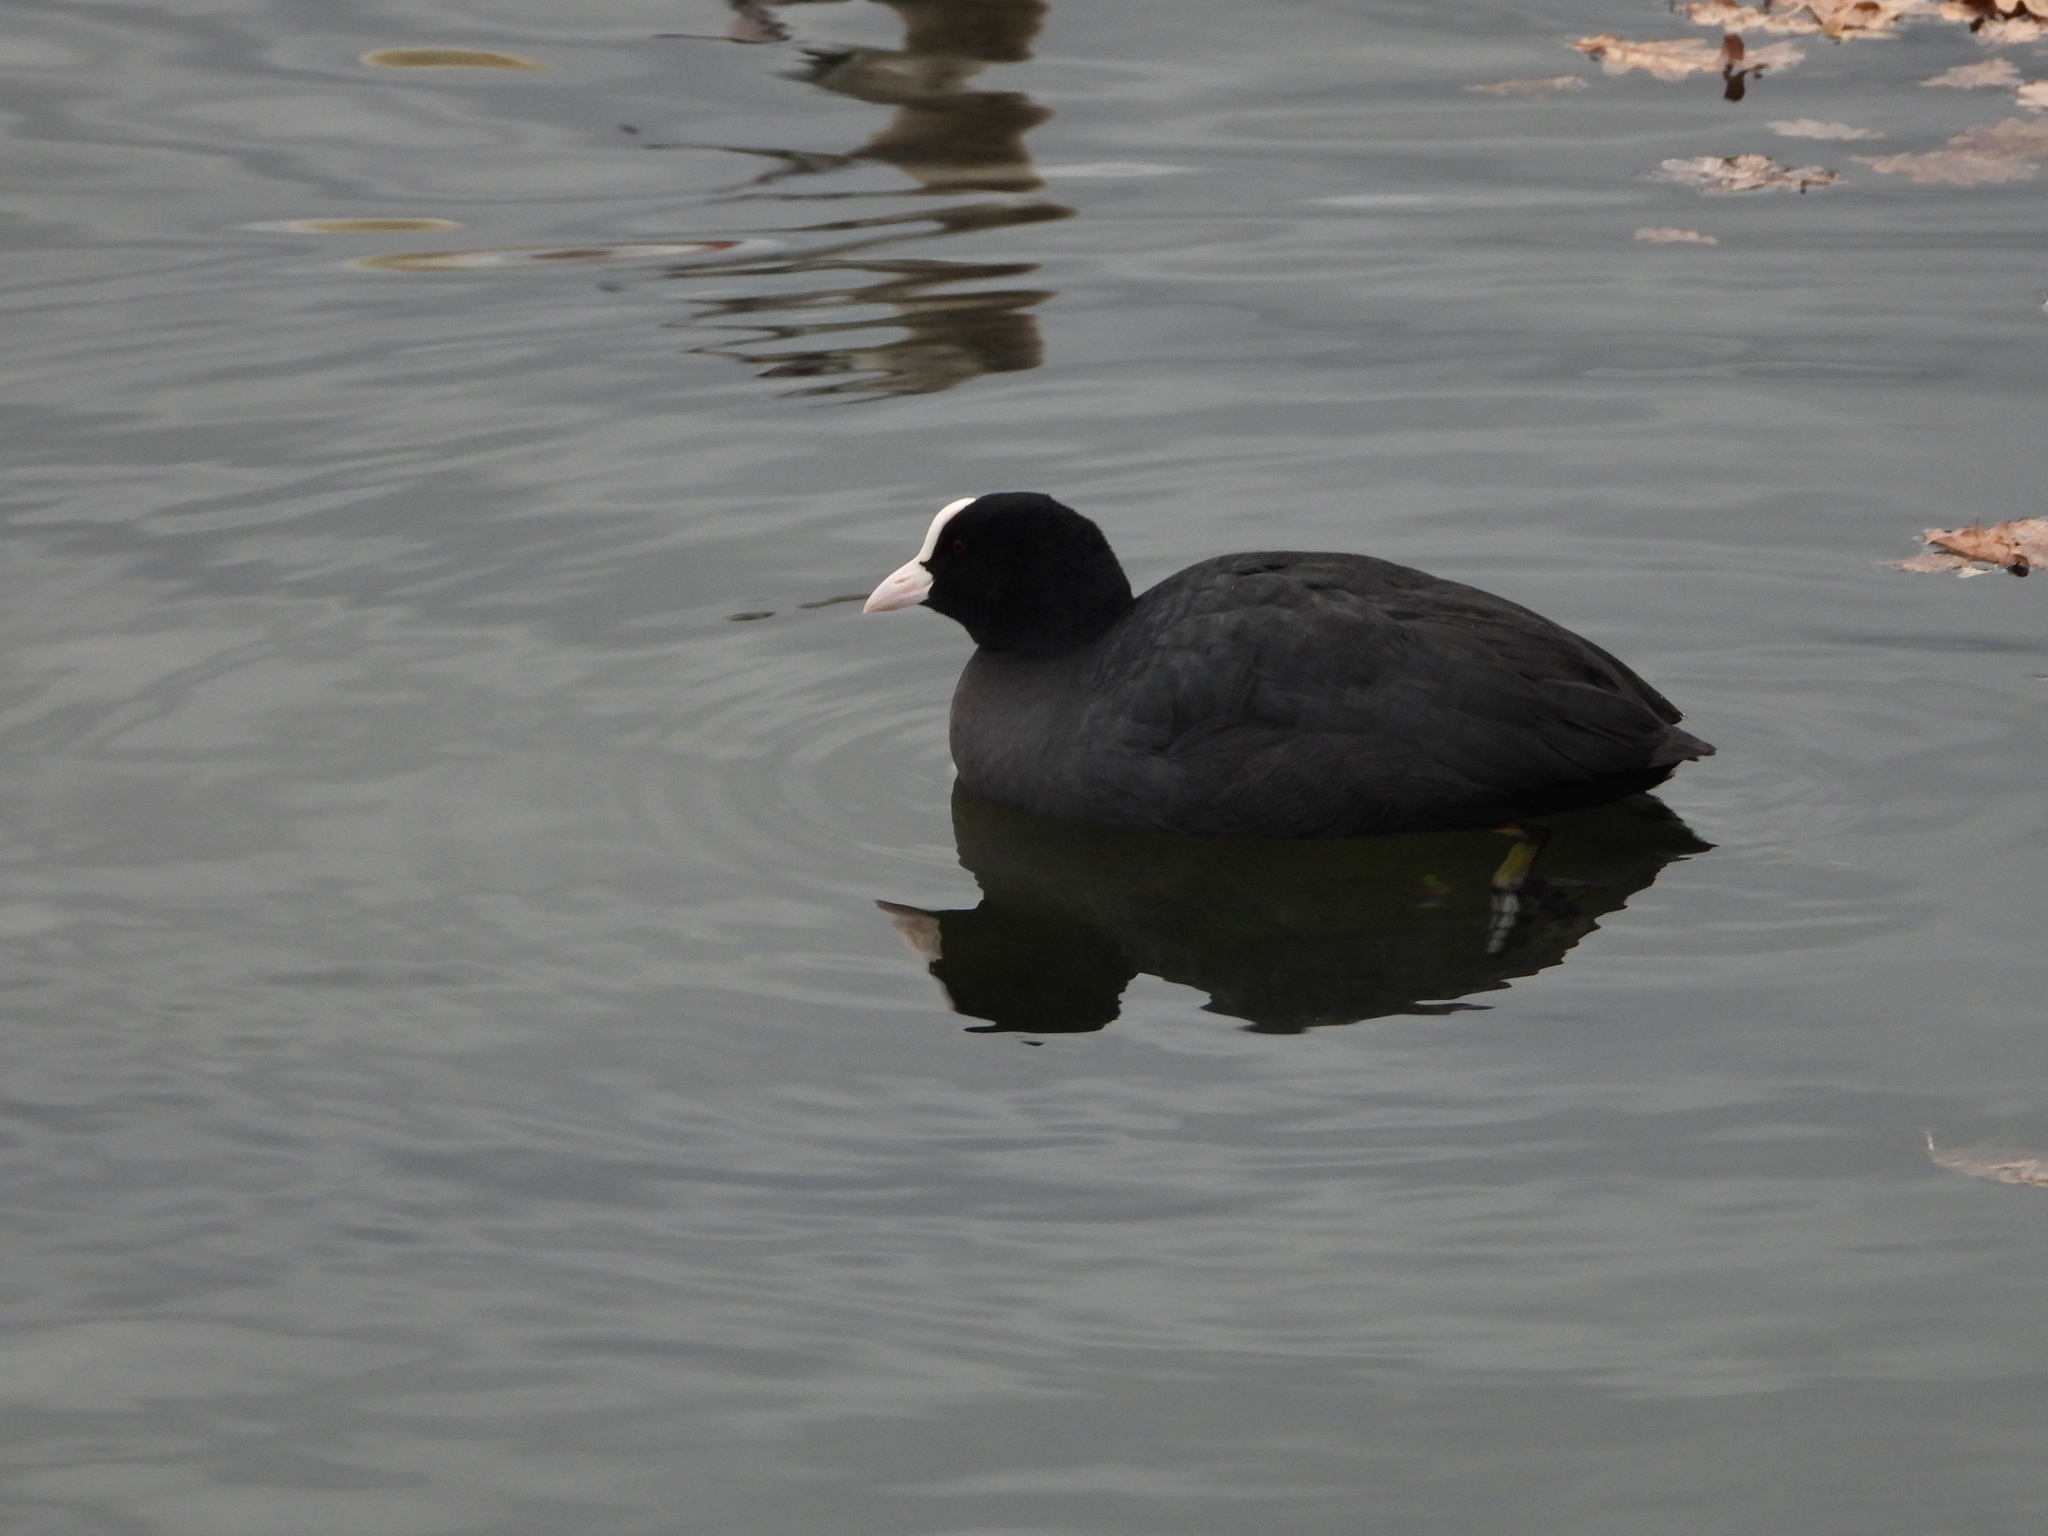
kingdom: Animalia
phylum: Chordata
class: Aves
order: Gruiformes
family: Rallidae
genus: Fulica
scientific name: Fulica atra
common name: Eurasian coot
